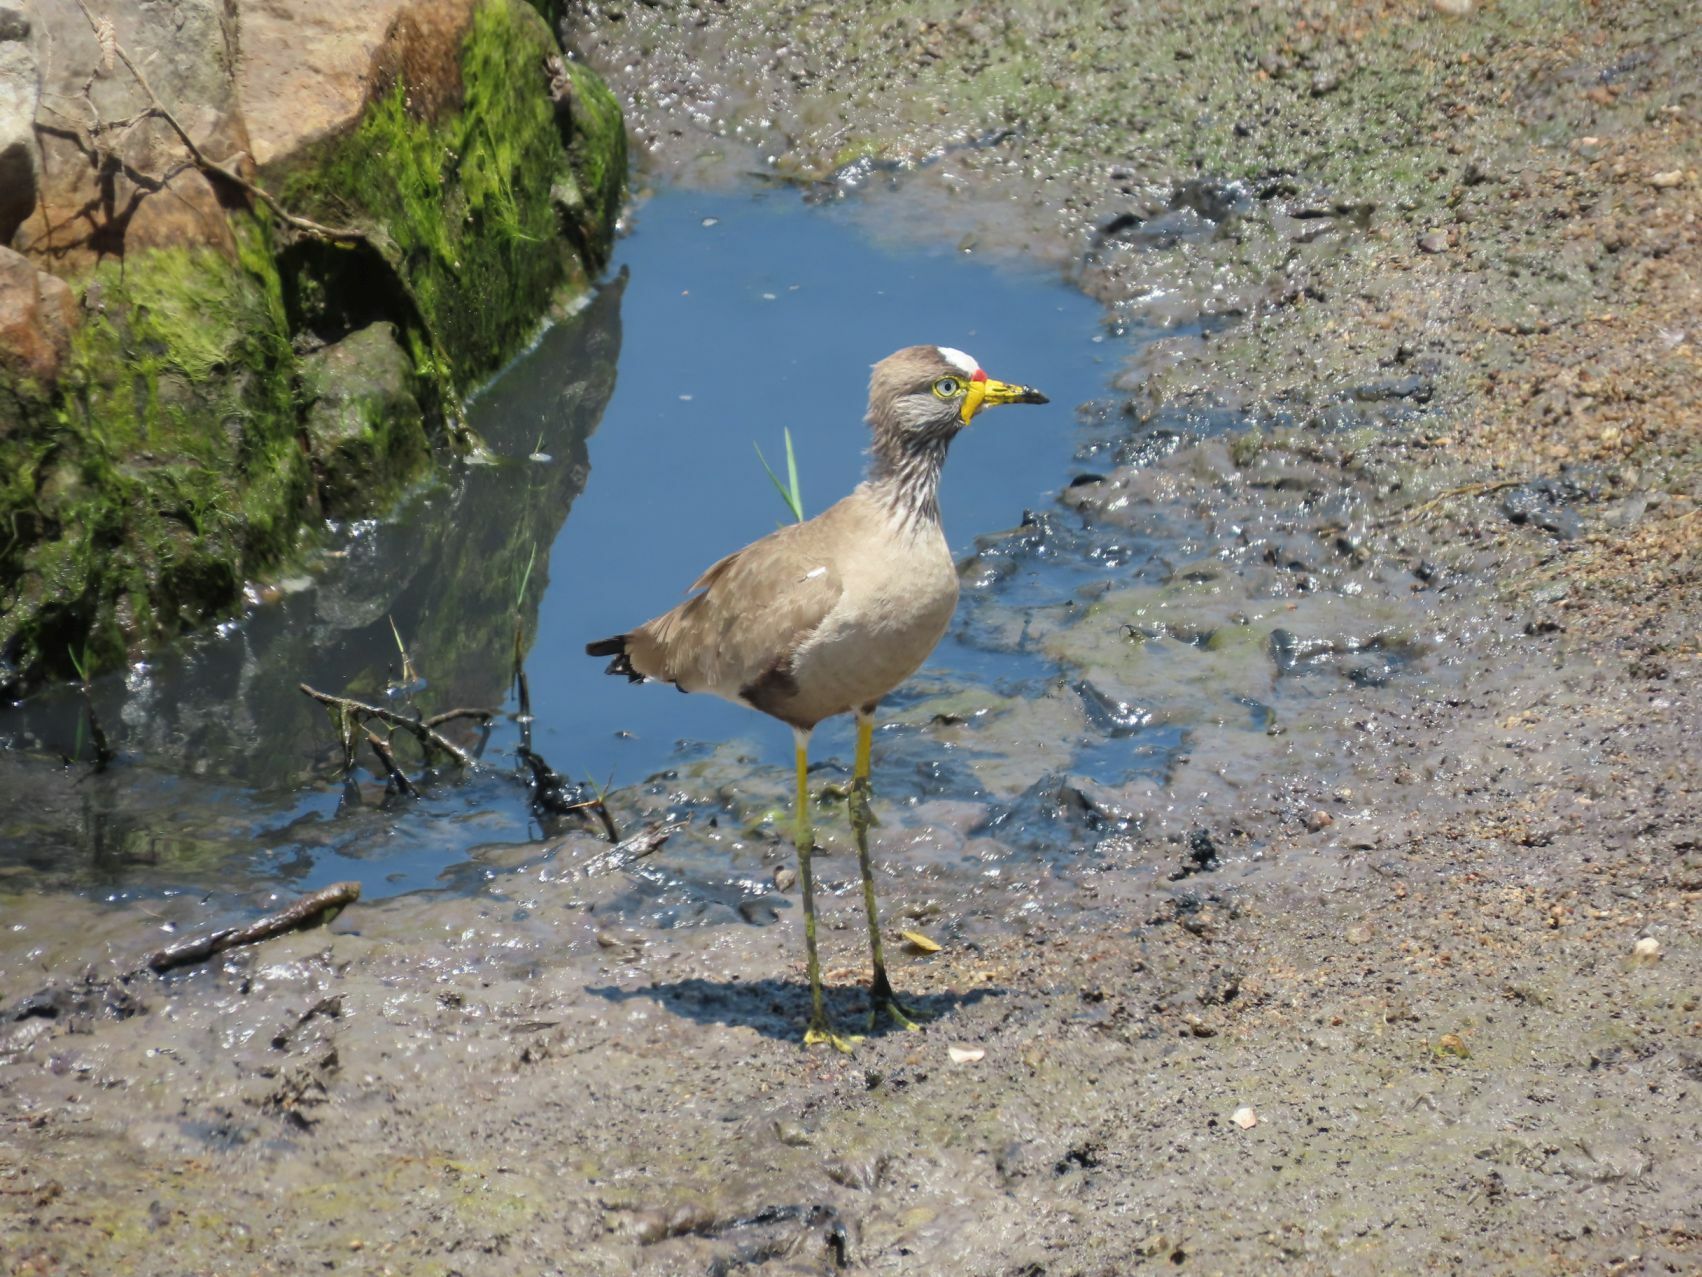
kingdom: Animalia
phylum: Chordata
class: Aves
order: Charadriiformes
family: Charadriidae
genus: Vanellus
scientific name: Vanellus senegallus
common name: African wattled lapwing
